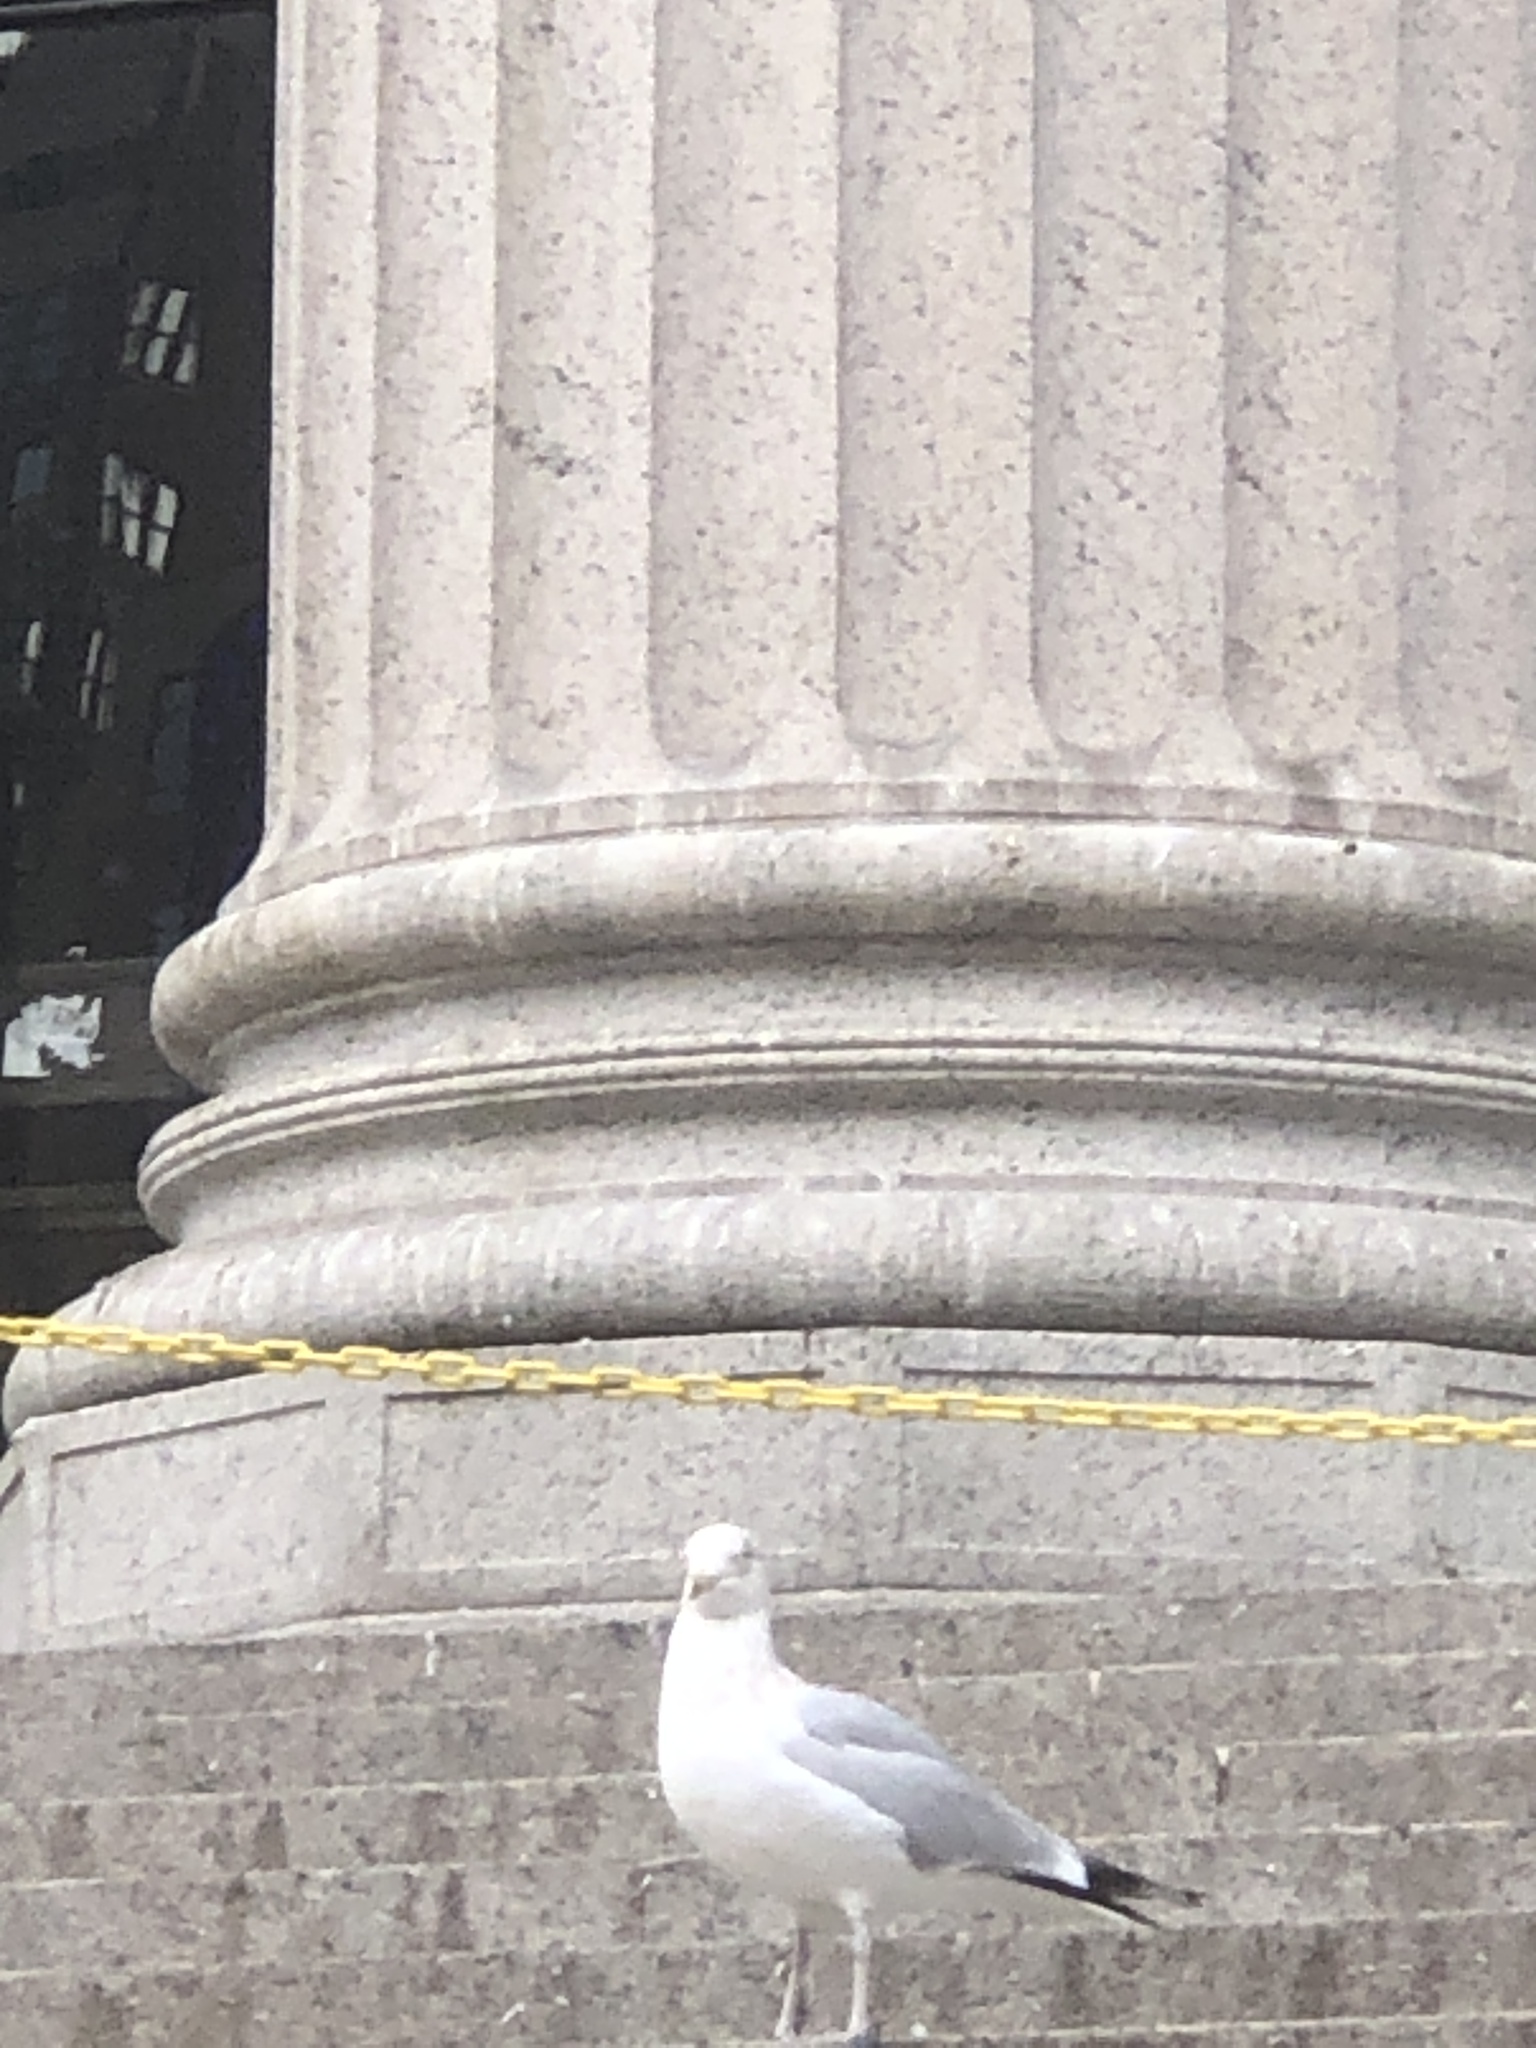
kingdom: Animalia
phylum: Chordata
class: Aves
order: Charadriiformes
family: Laridae
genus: Larus
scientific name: Larus argentatus
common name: Herring gull
